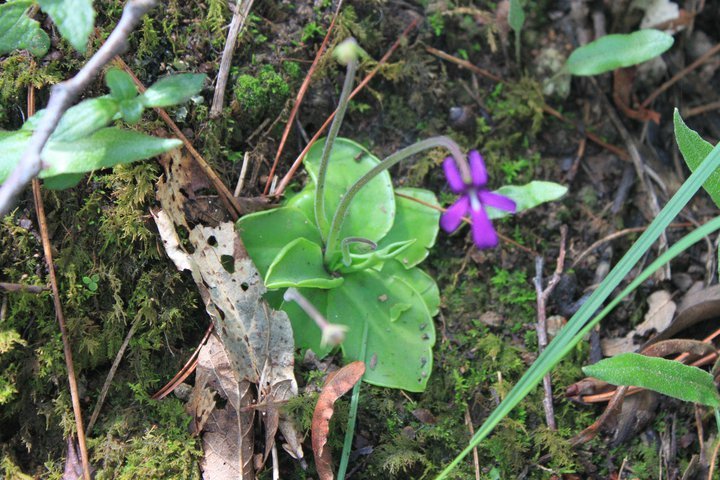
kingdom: Plantae
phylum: Tracheophyta
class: Magnoliopsida
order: Lamiales
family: Lentibulariaceae
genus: Pinguicula
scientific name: Pinguicula moranensis
